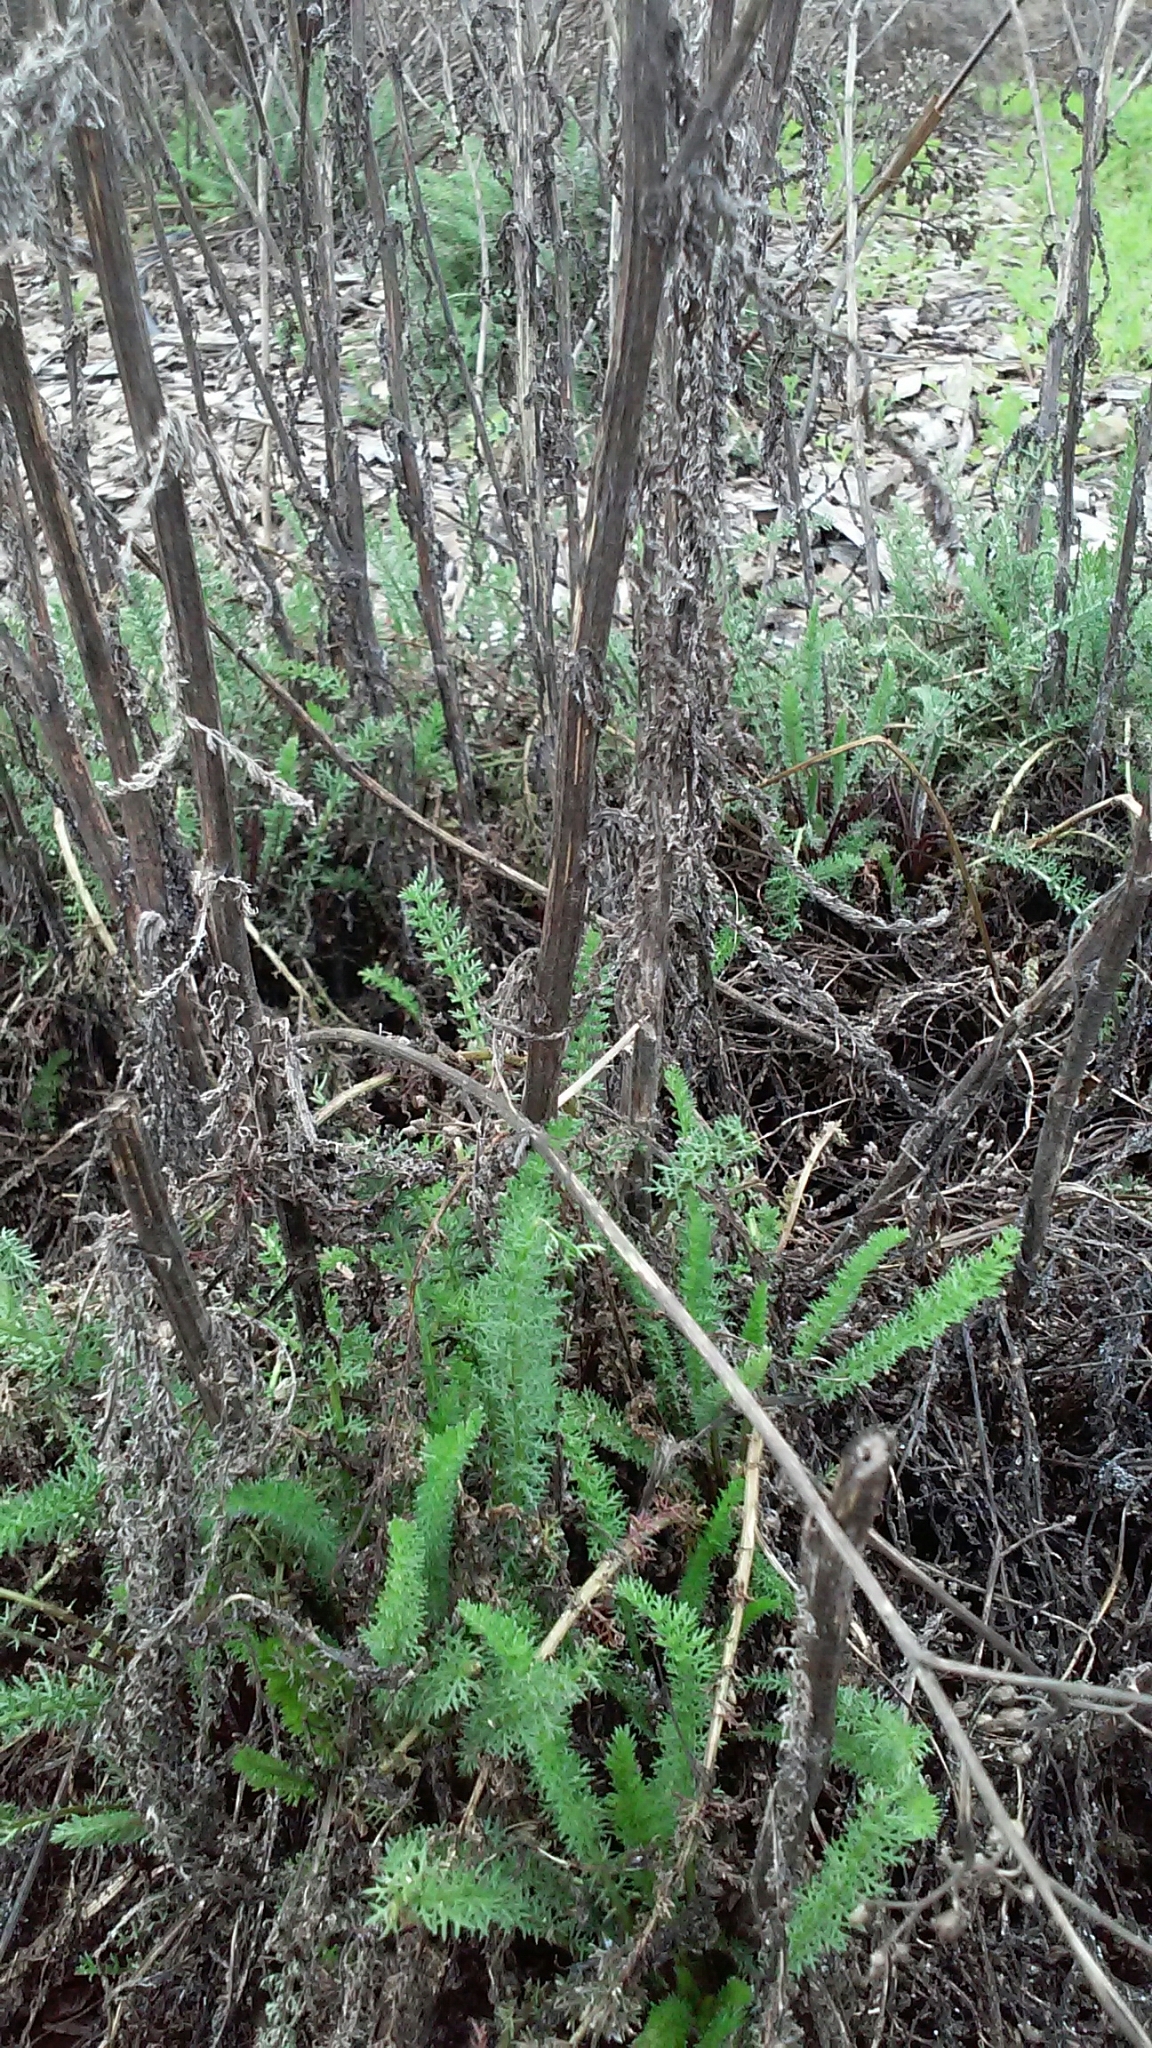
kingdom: Plantae
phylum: Tracheophyta
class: Magnoliopsida
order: Asterales
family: Asteraceae
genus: Achillea
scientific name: Achillea millefolium
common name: Yarrow
